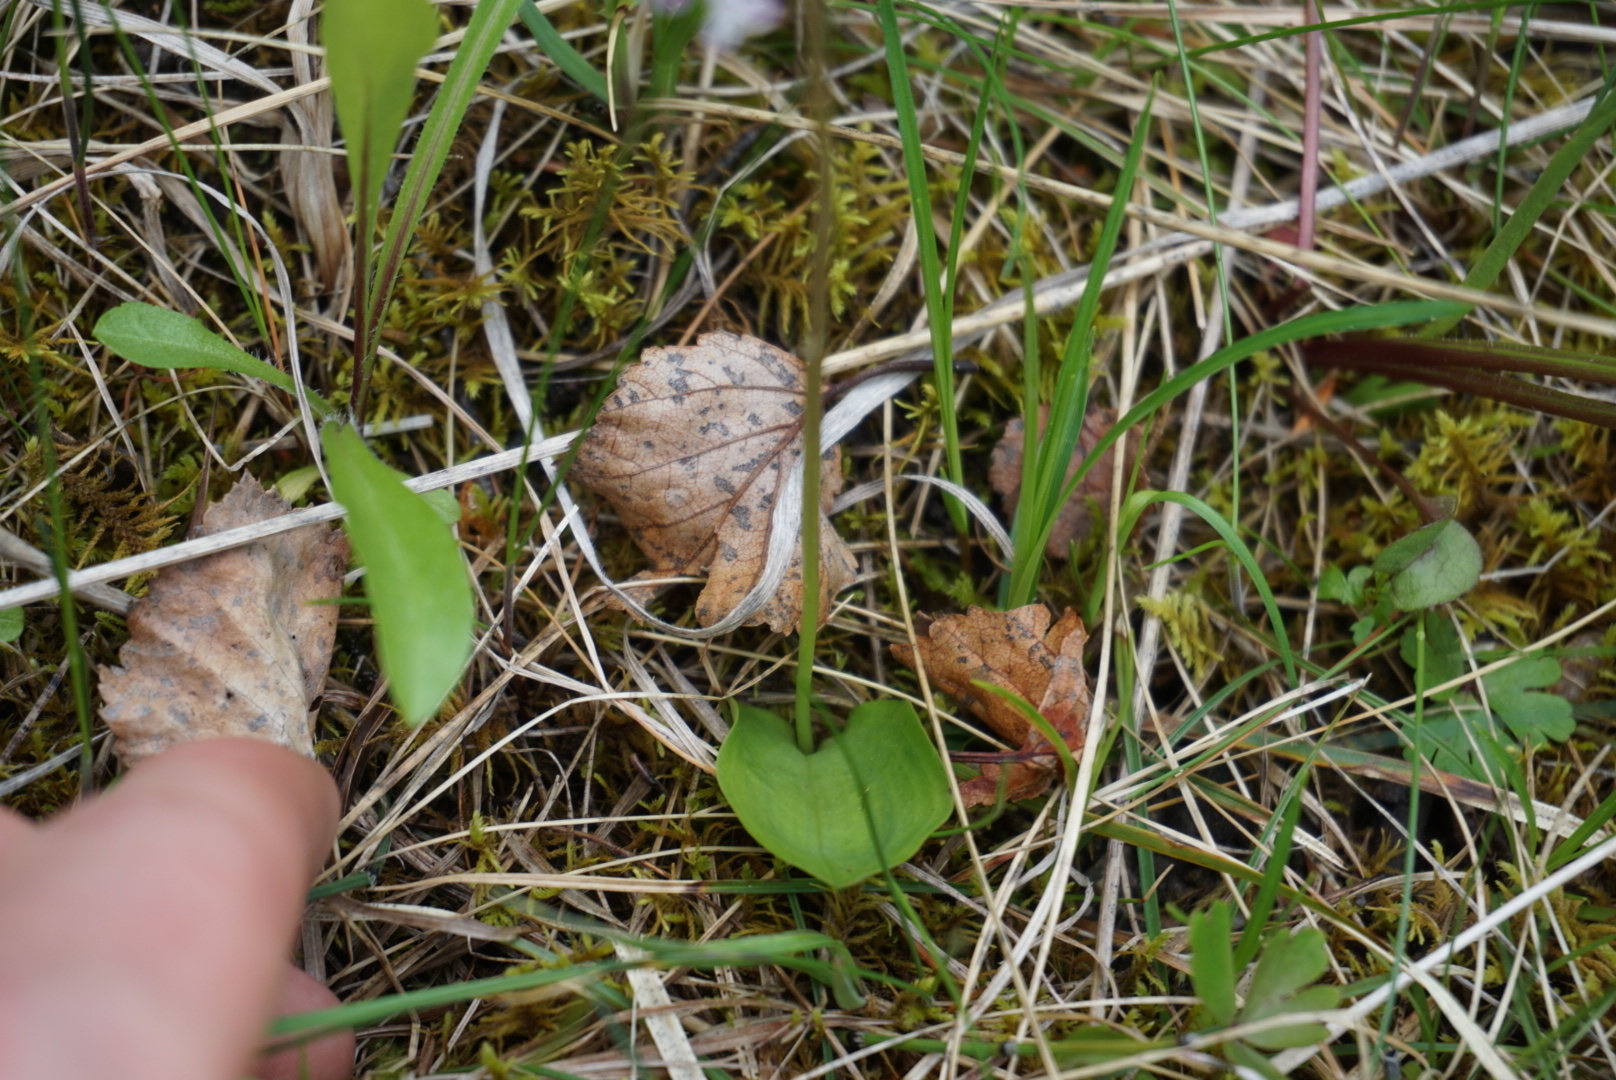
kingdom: Plantae
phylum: Tracheophyta
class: Liliopsida
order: Asparagales
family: Orchidaceae
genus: Galearis
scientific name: Galearis rotundifolia
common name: One-leaved orchis
